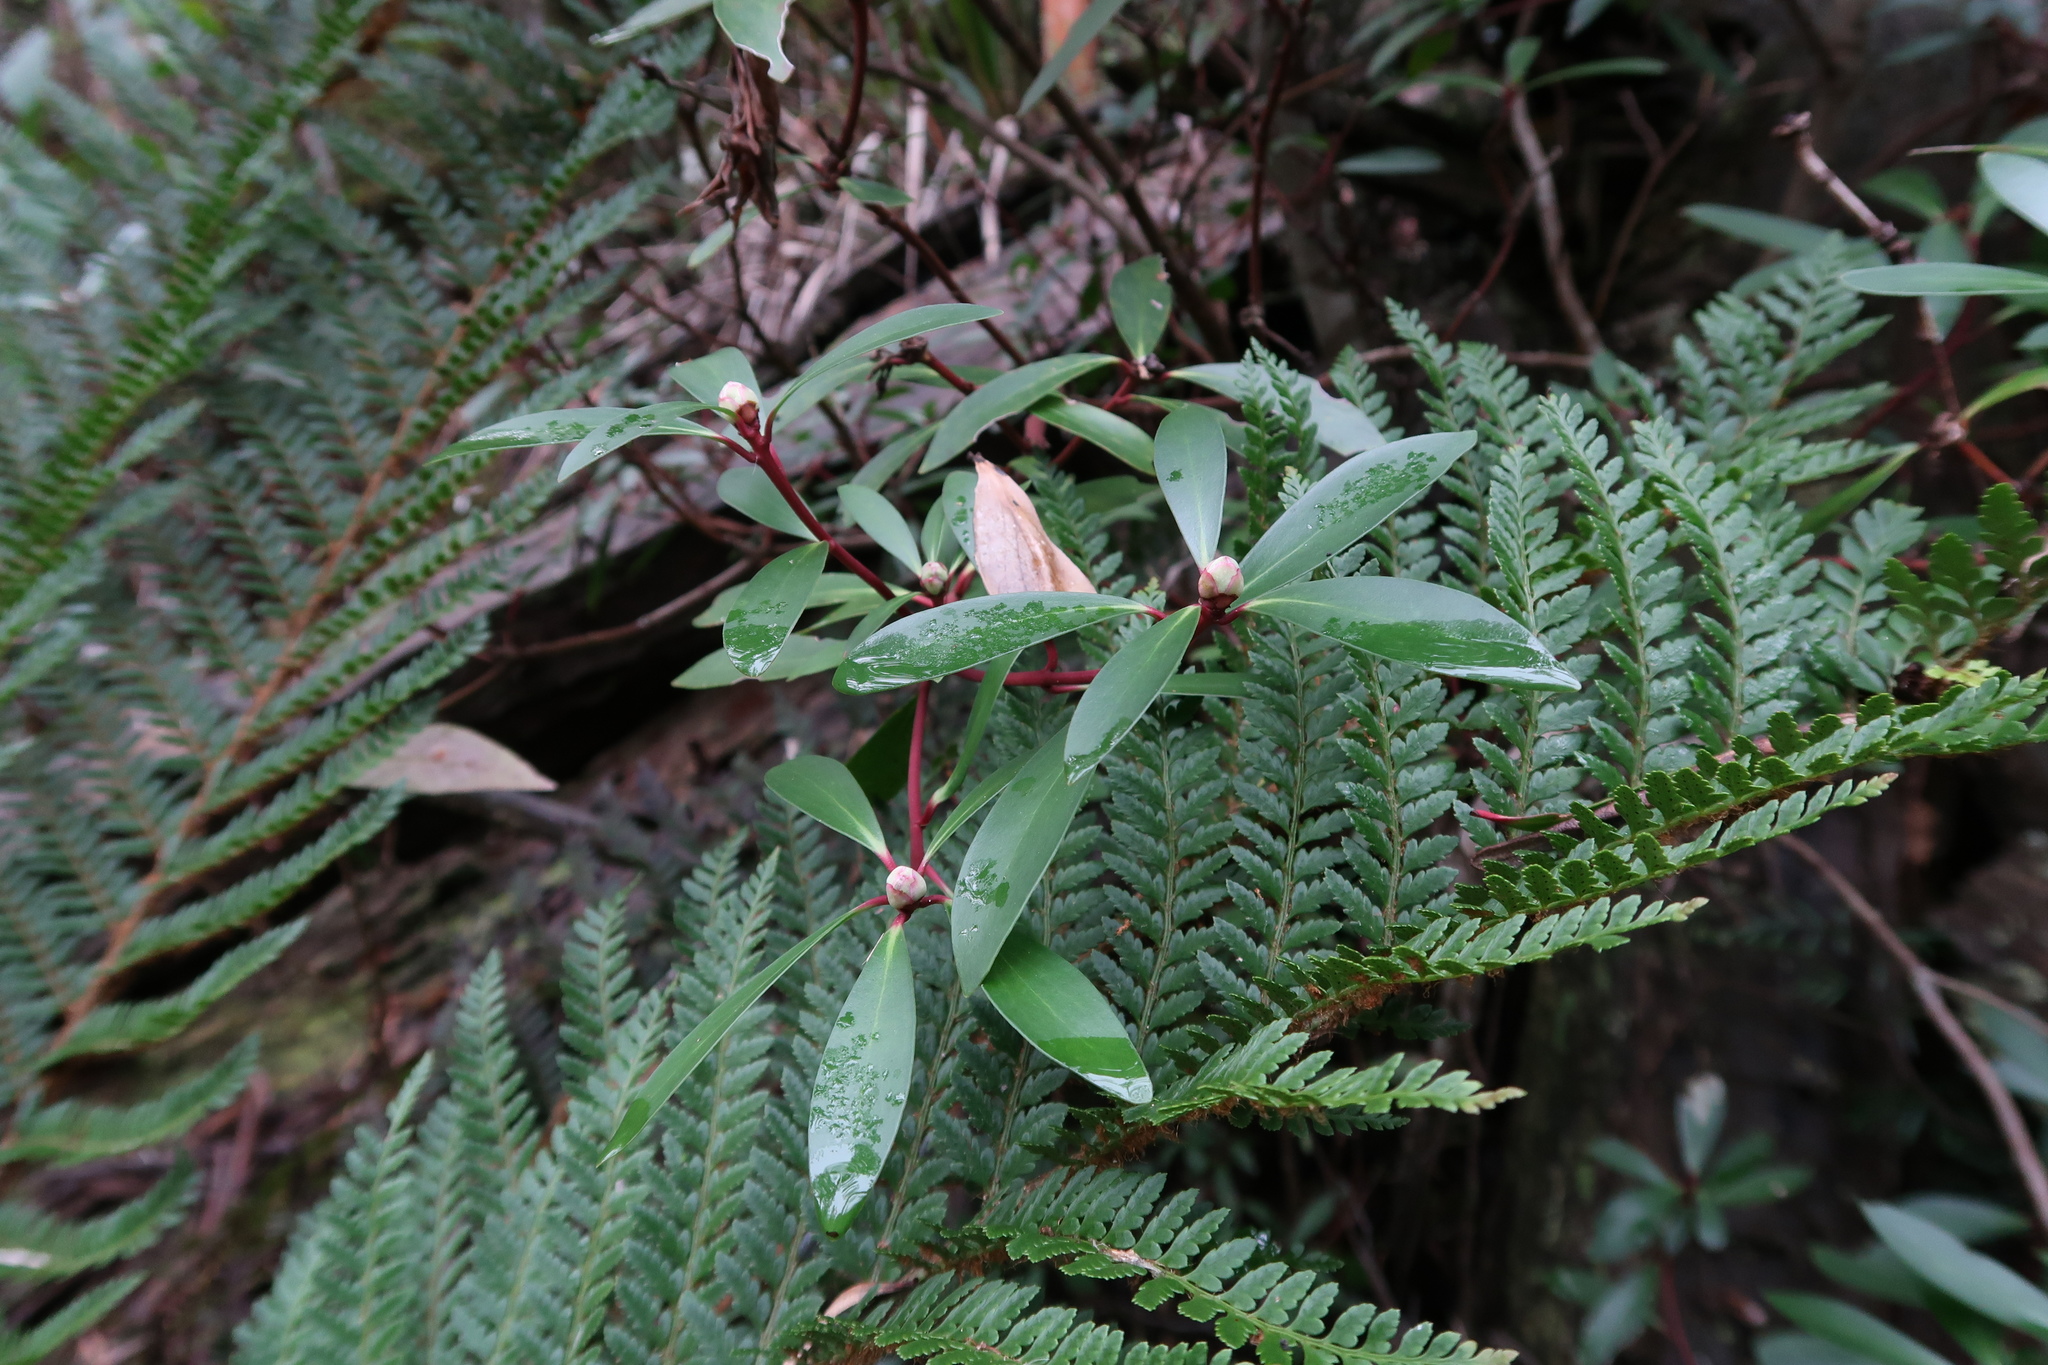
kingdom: Plantae
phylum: Tracheophyta
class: Magnoliopsida
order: Canellales
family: Winteraceae
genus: Drimys
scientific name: Drimys aromatica
